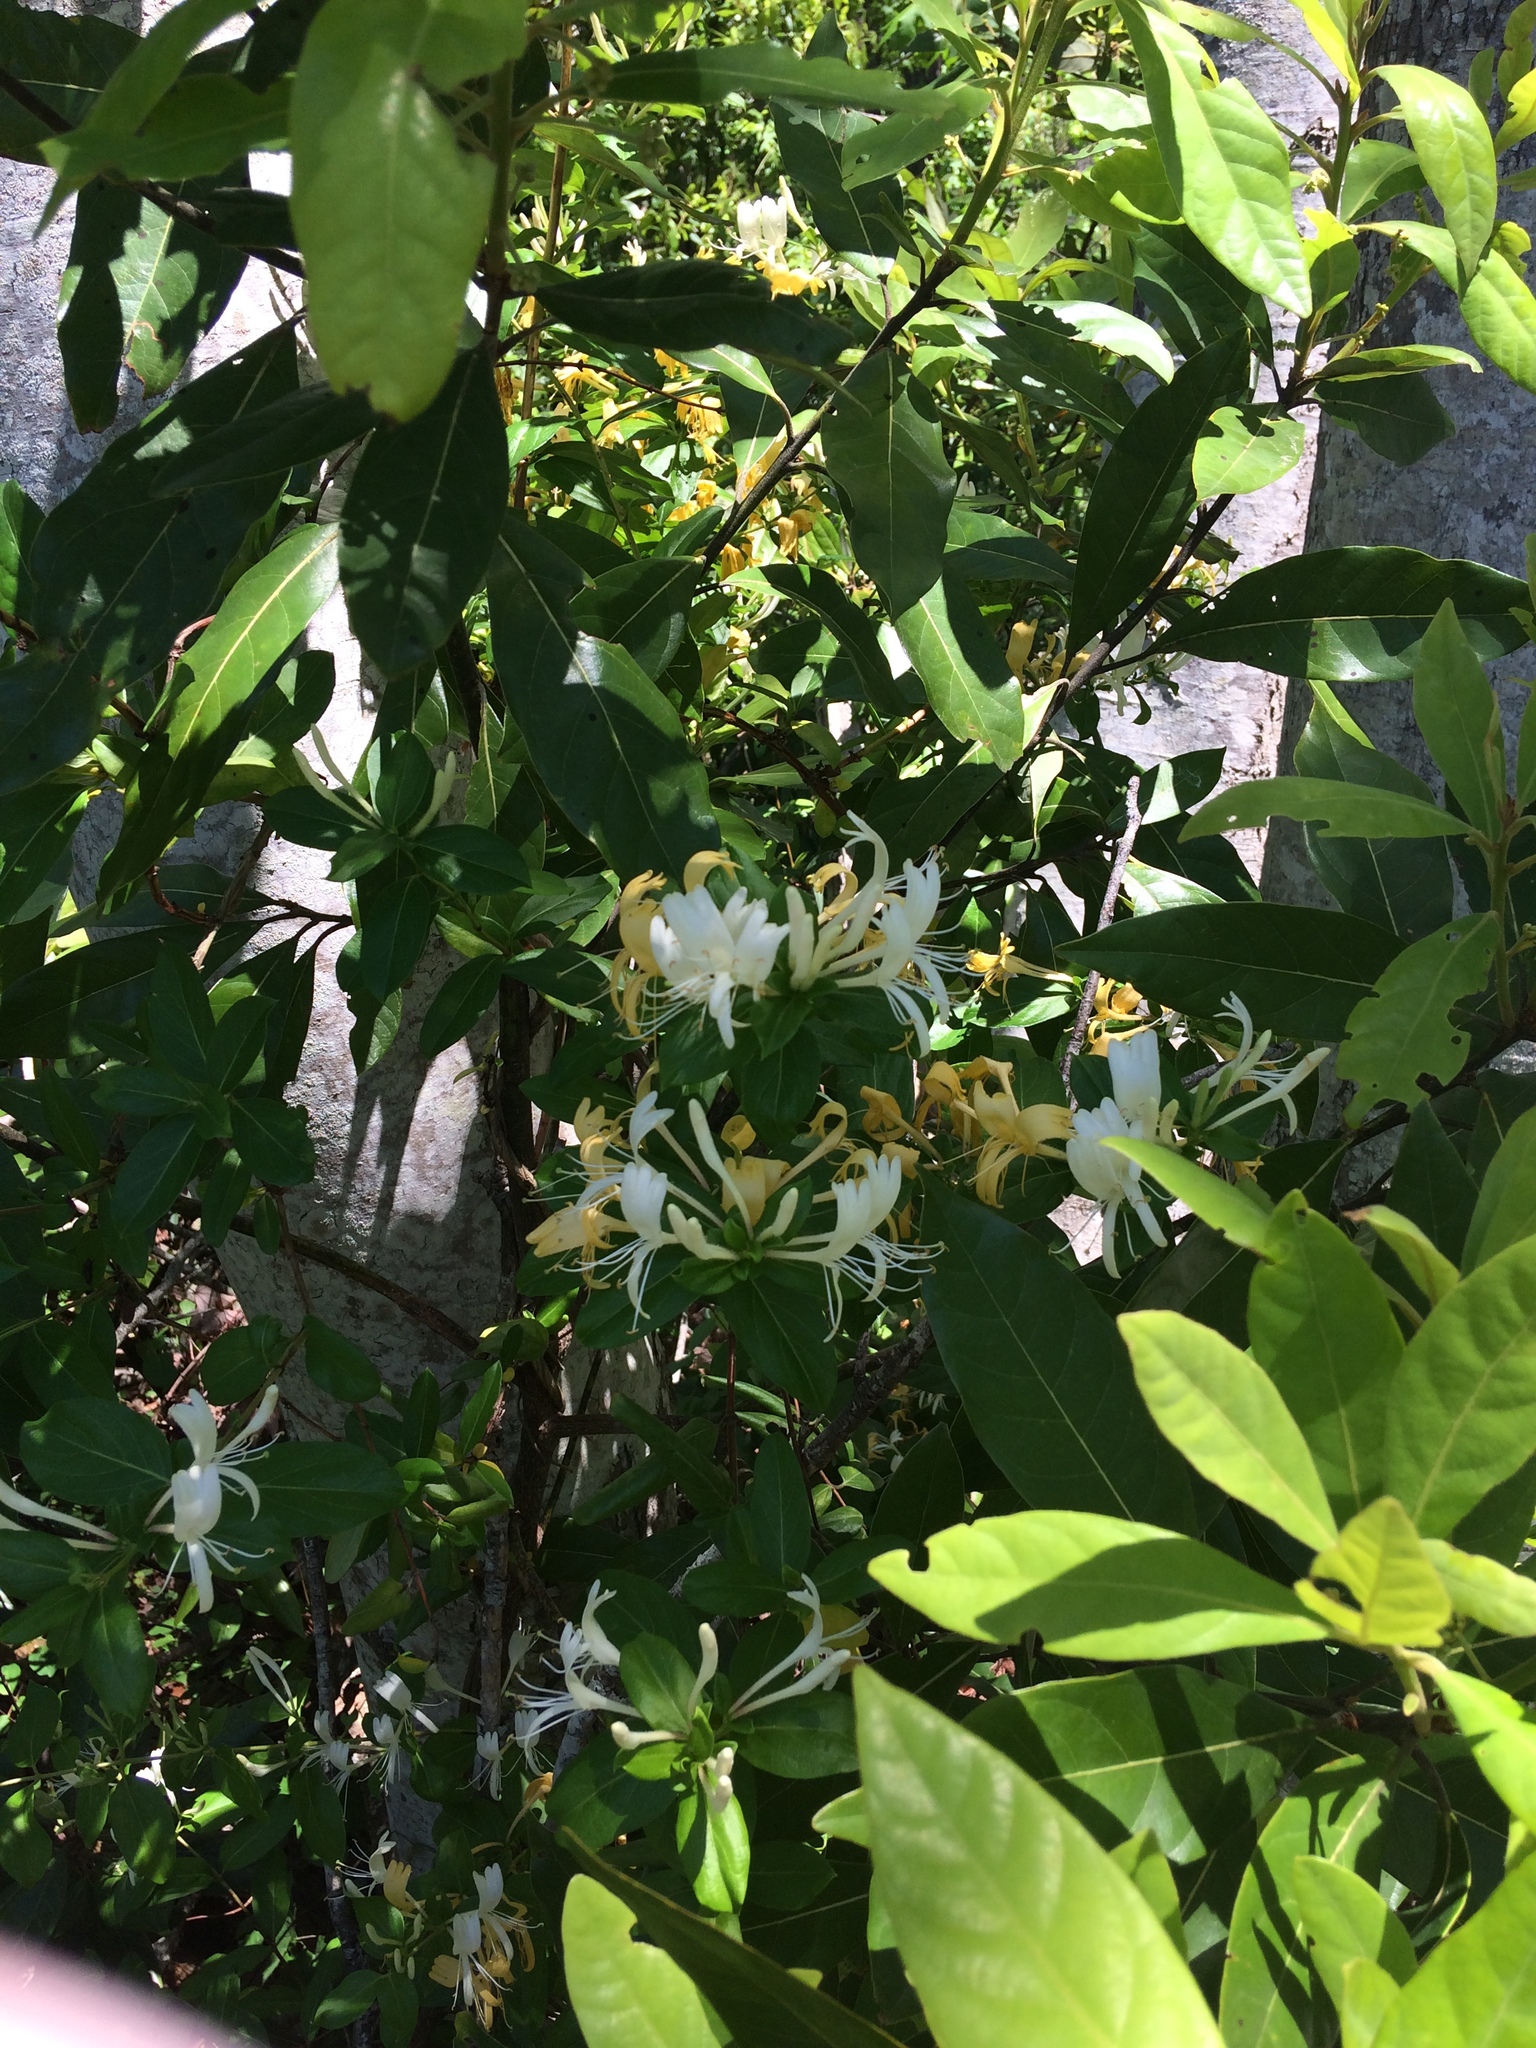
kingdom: Plantae
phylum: Tracheophyta
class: Magnoliopsida
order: Dipsacales
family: Caprifoliaceae
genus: Lonicera
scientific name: Lonicera japonica
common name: Japanese honeysuckle
